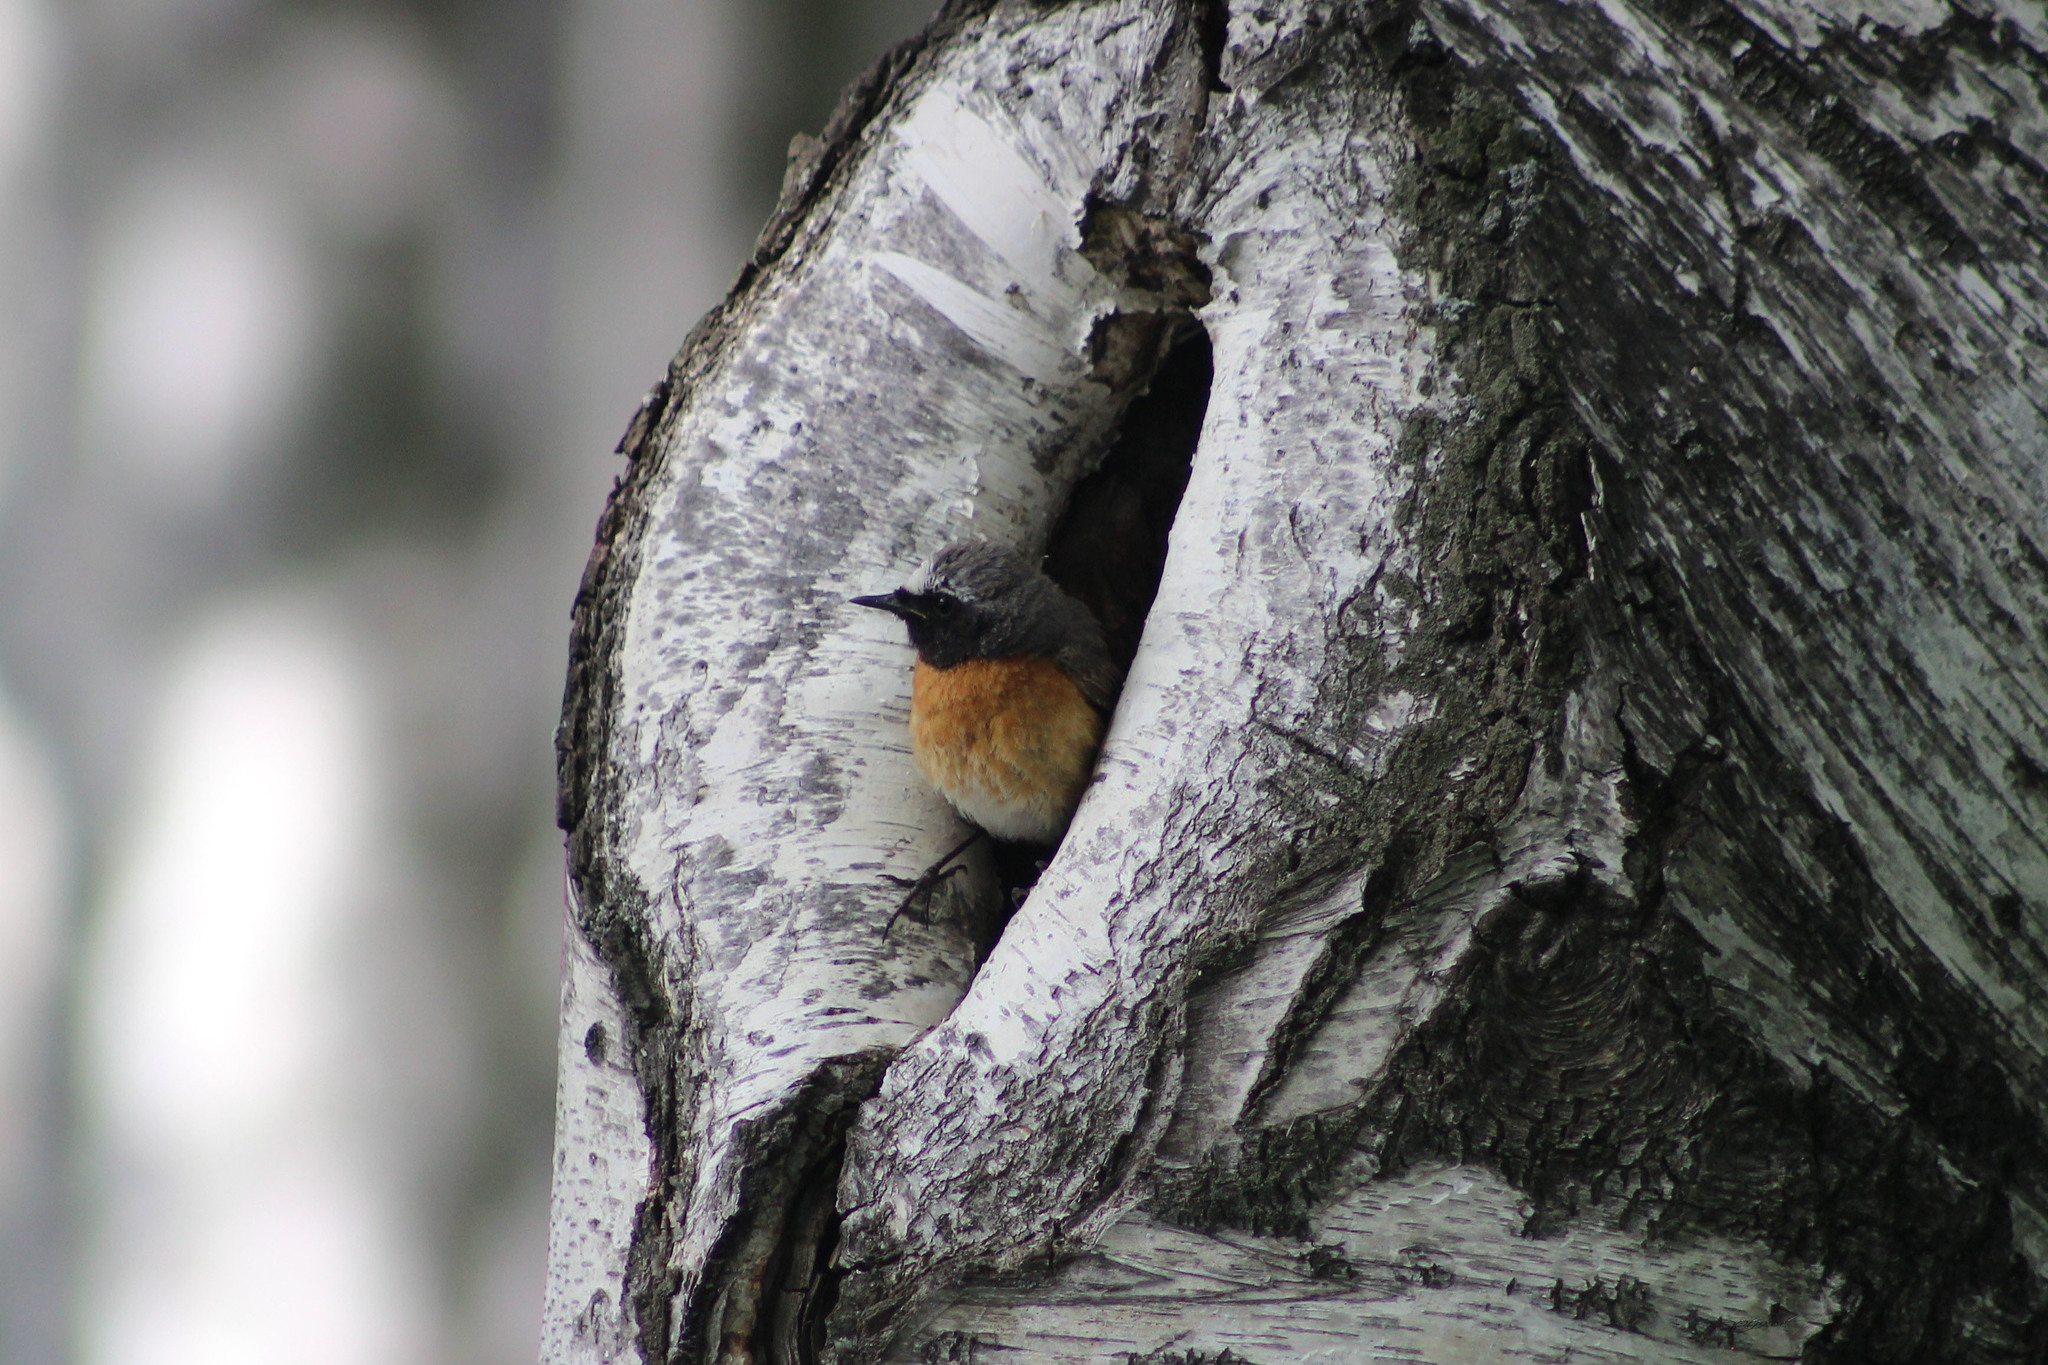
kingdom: Animalia
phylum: Chordata
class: Aves
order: Passeriformes
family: Muscicapidae
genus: Phoenicurus
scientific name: Phoenicurus phoenicurus
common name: Common redstart
